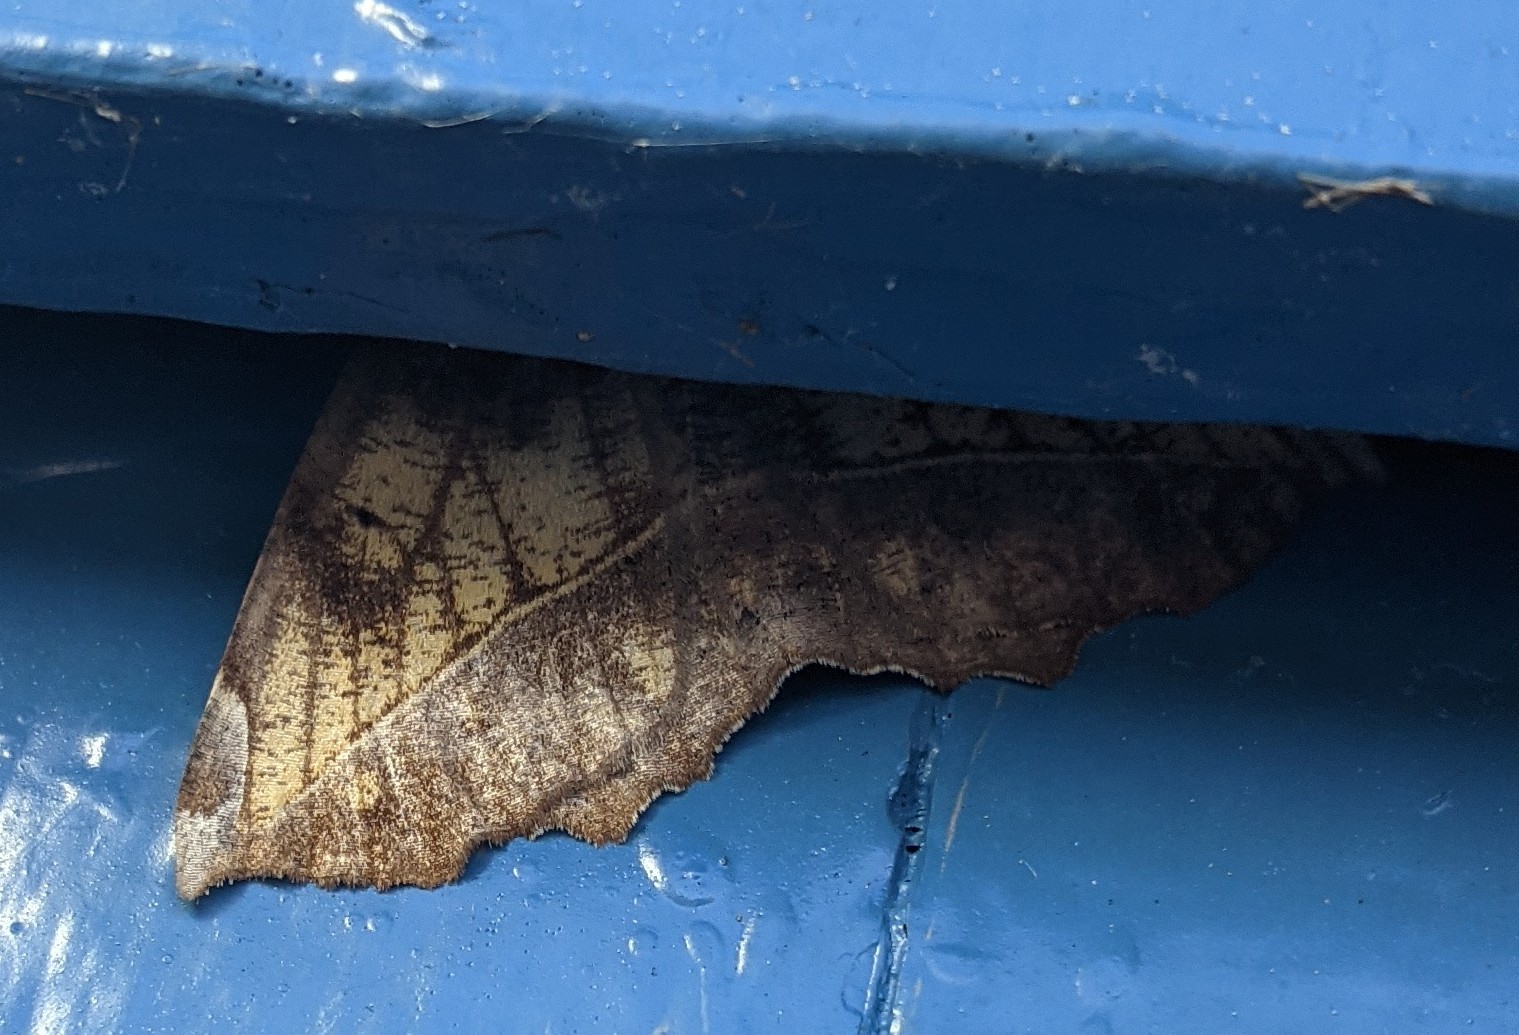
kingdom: Animalia
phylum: Arthropoda
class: Insecta
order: Lepidoptera
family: Geometridae
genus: Eutrapela
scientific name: Eutrapela clemataria
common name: Curved-toothed geometer
